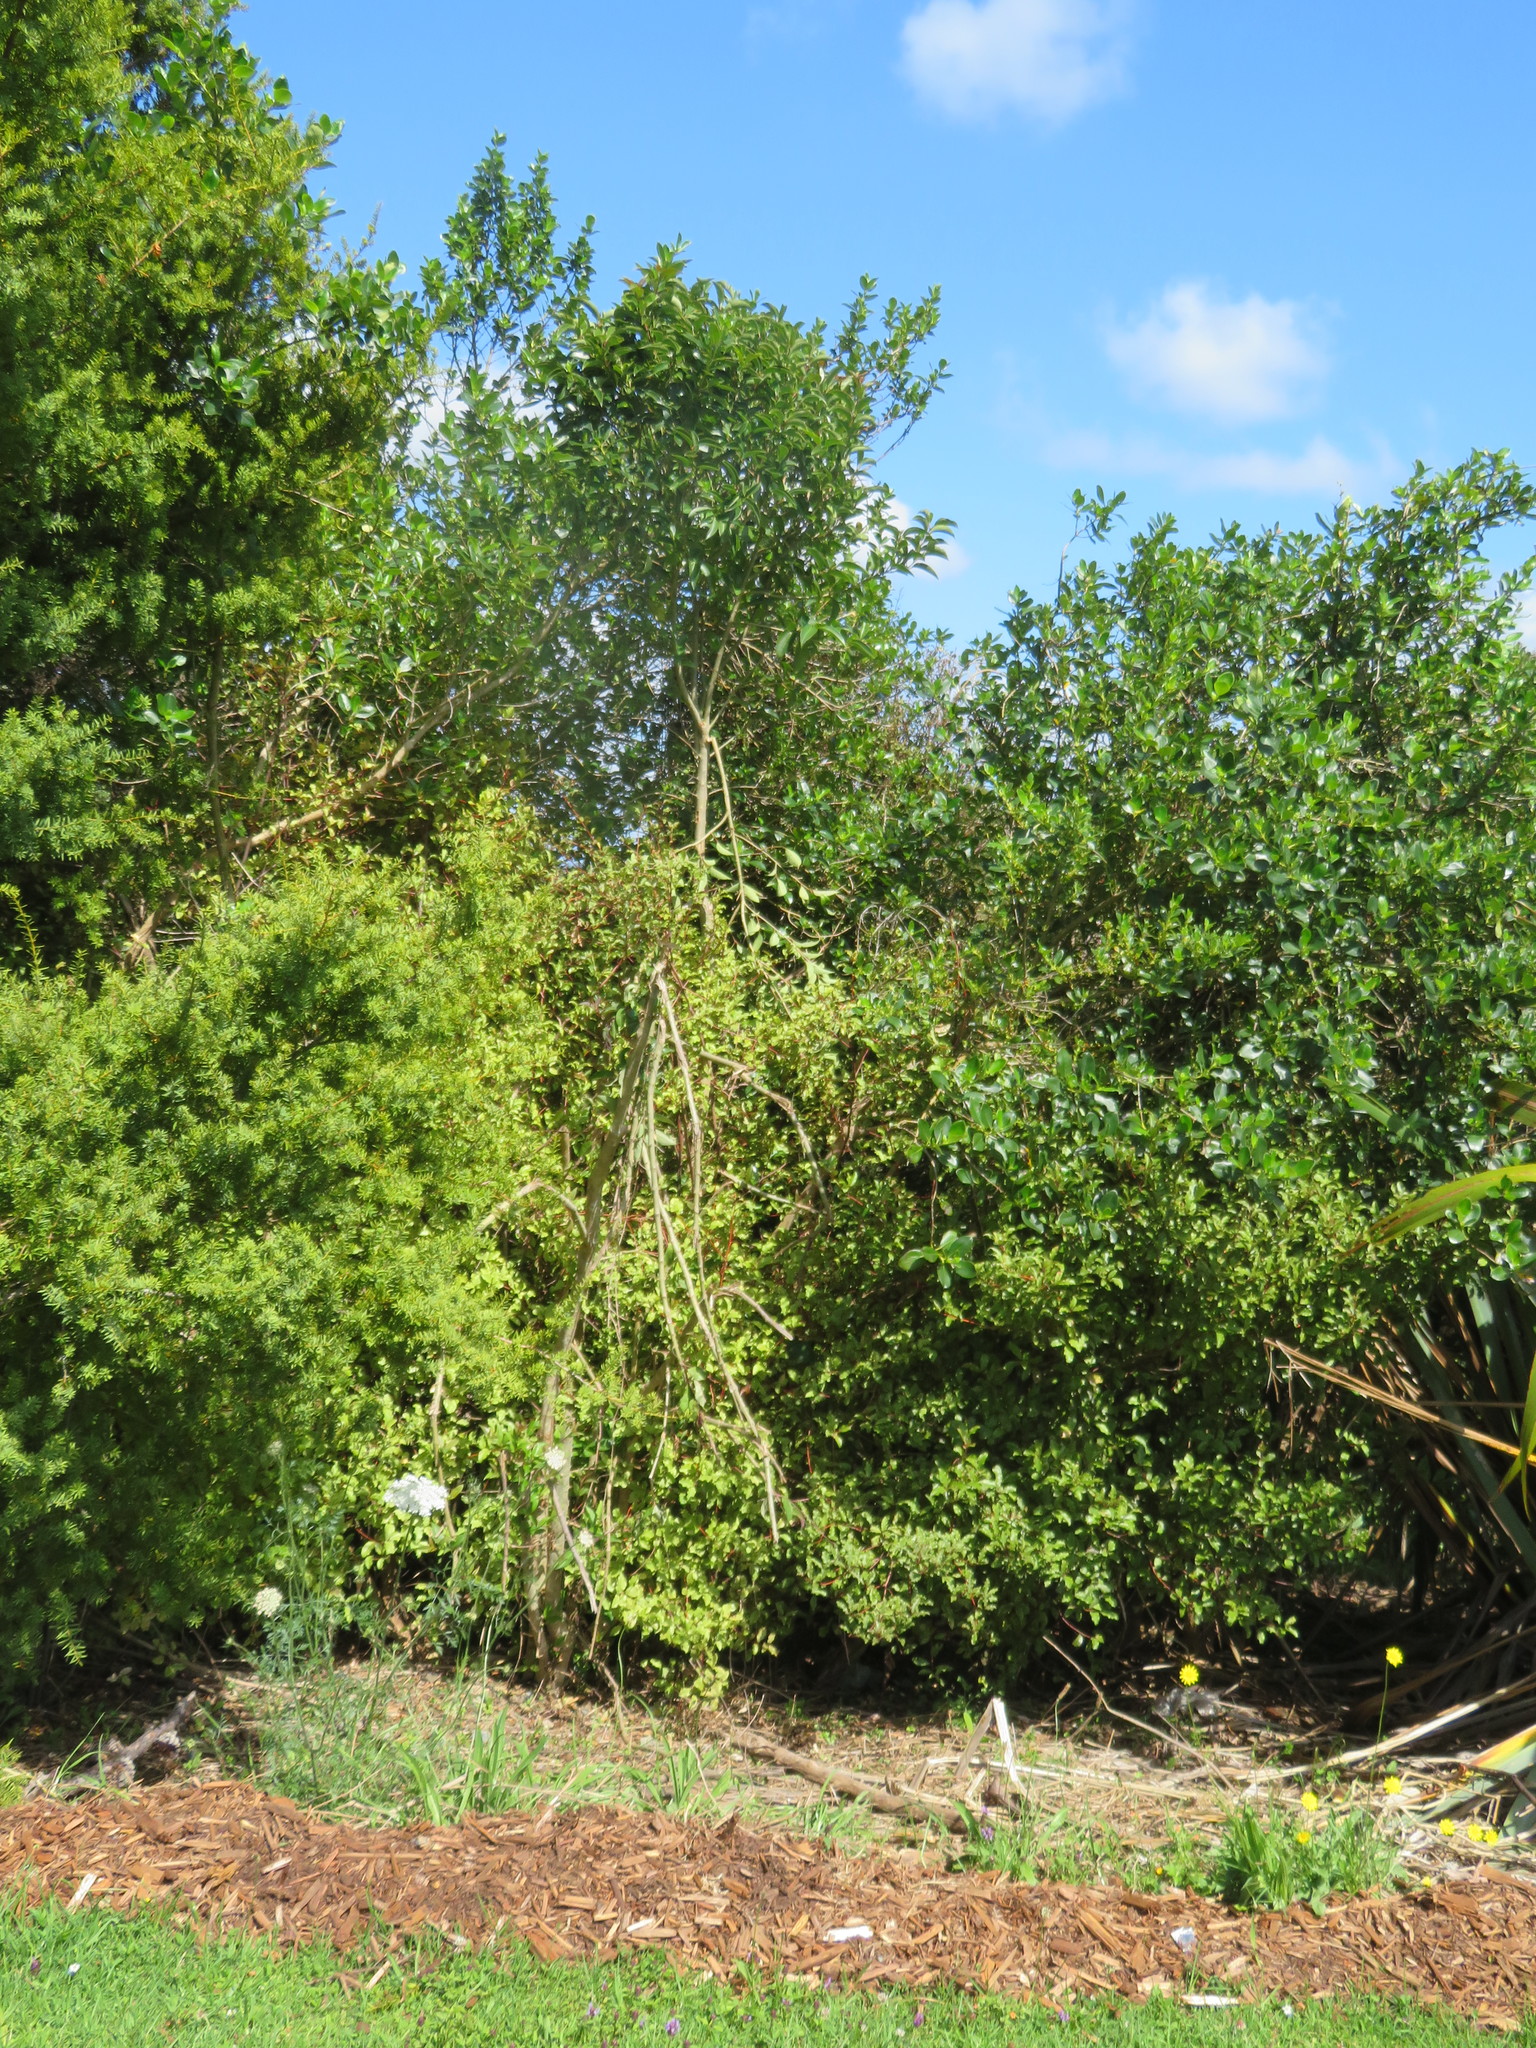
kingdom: Plantae
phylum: Tracheophyta
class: Magnoliopsida
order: Lamiales
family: Oleaceae
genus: Ligustrum
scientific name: Ligustrum lucidum
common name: Glossy privet
